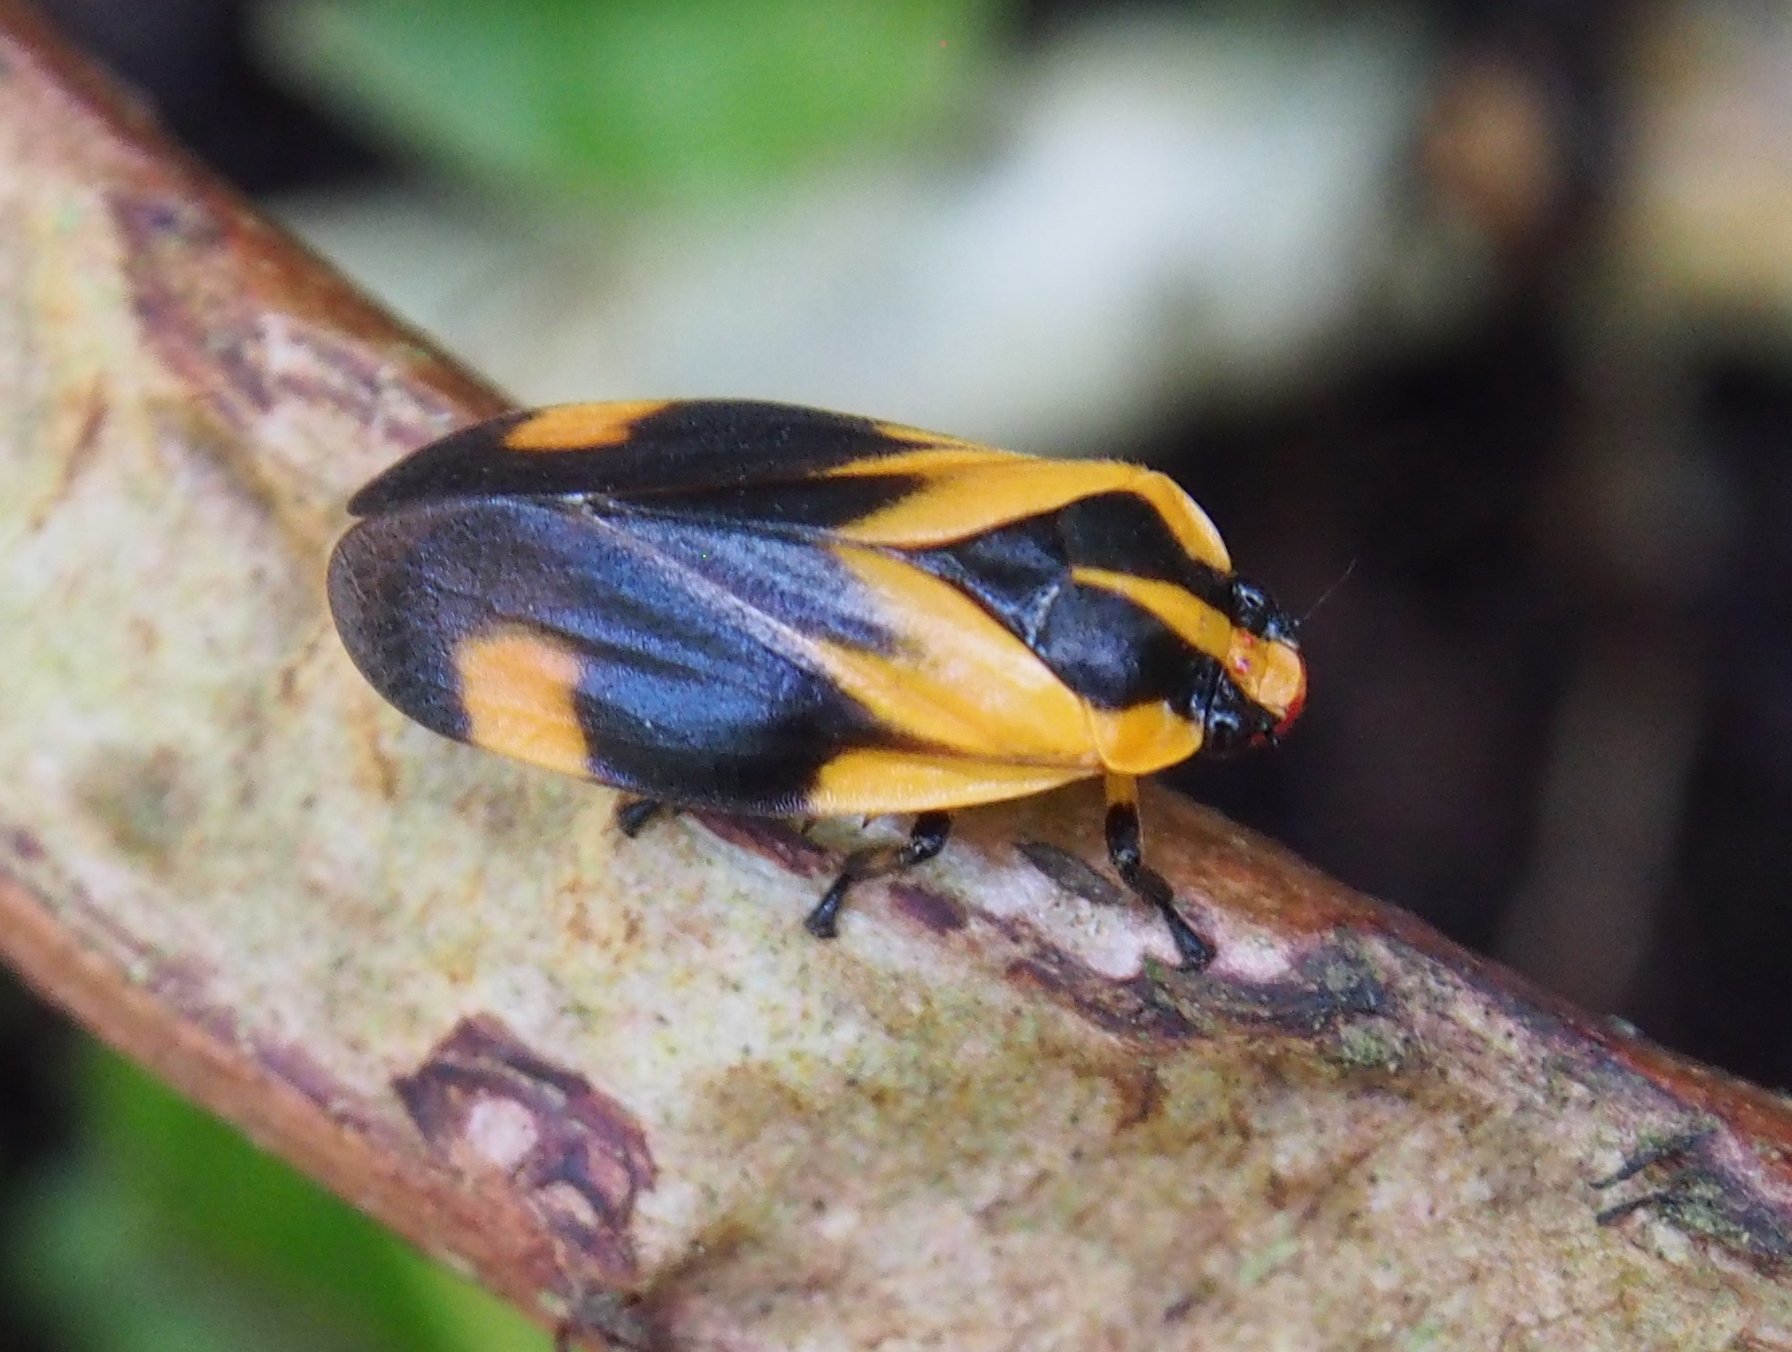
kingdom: Animalia
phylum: Arthropoda
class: Insecta
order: Hemiptera
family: Cercopidae
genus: Monecphora
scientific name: Monecphora broomfieldi
